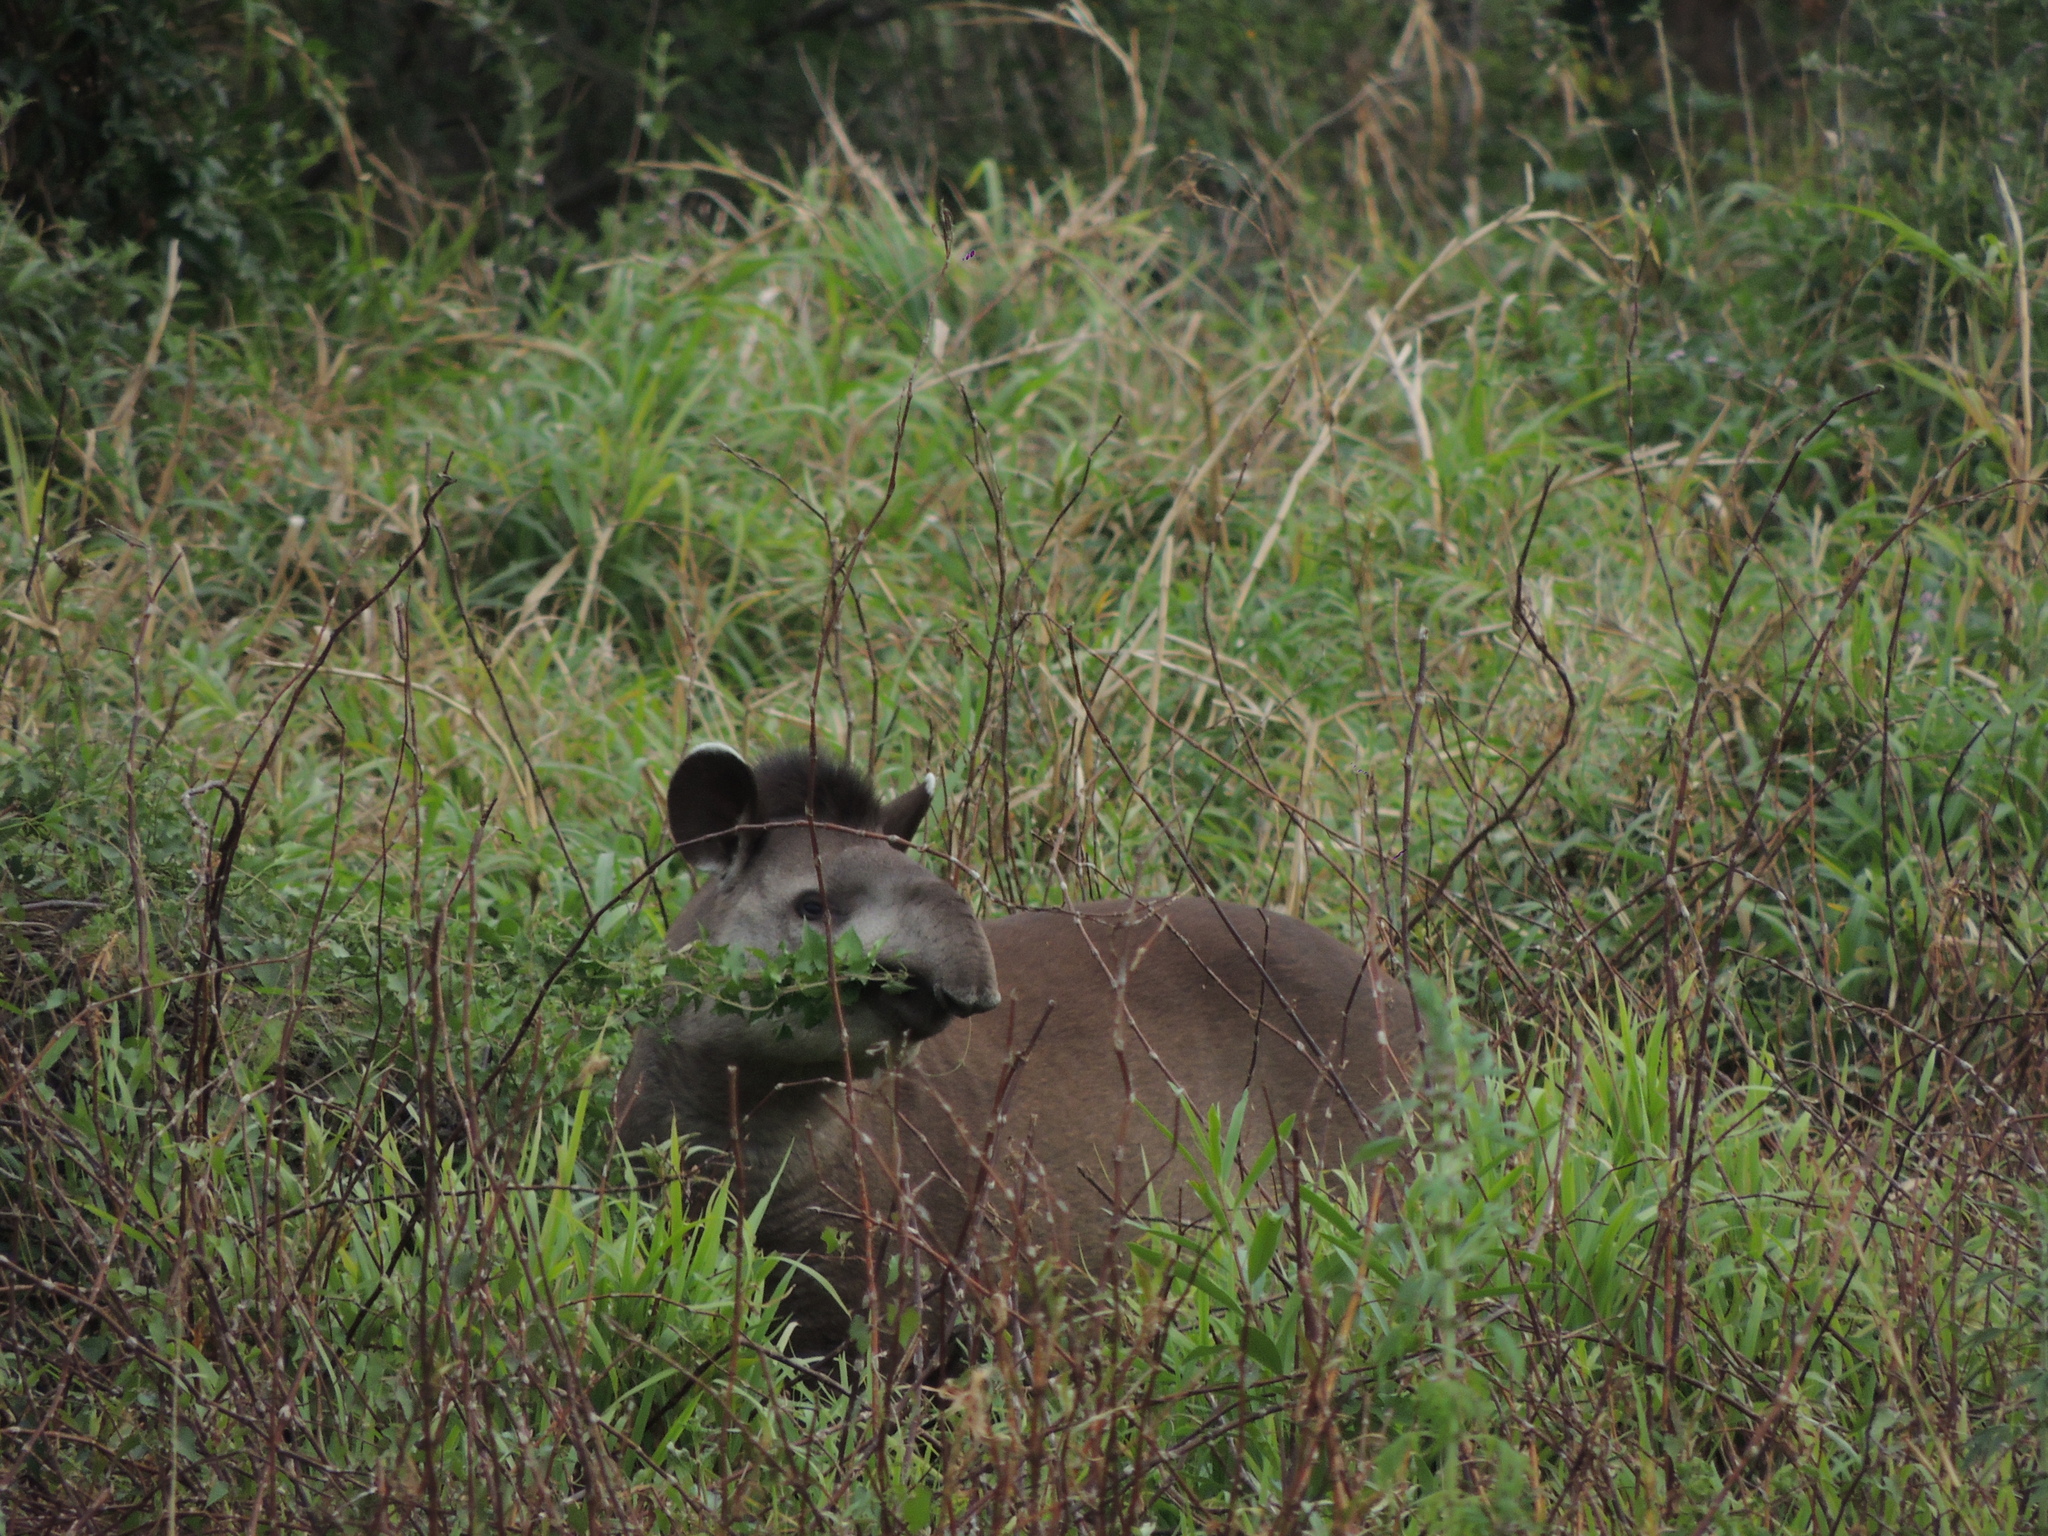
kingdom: Animalia
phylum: Chordata
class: Mammalia
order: Perissodactyla
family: Tapiridae
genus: Tapirus
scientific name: Tapirus terrestris
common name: Brazilian tapir
